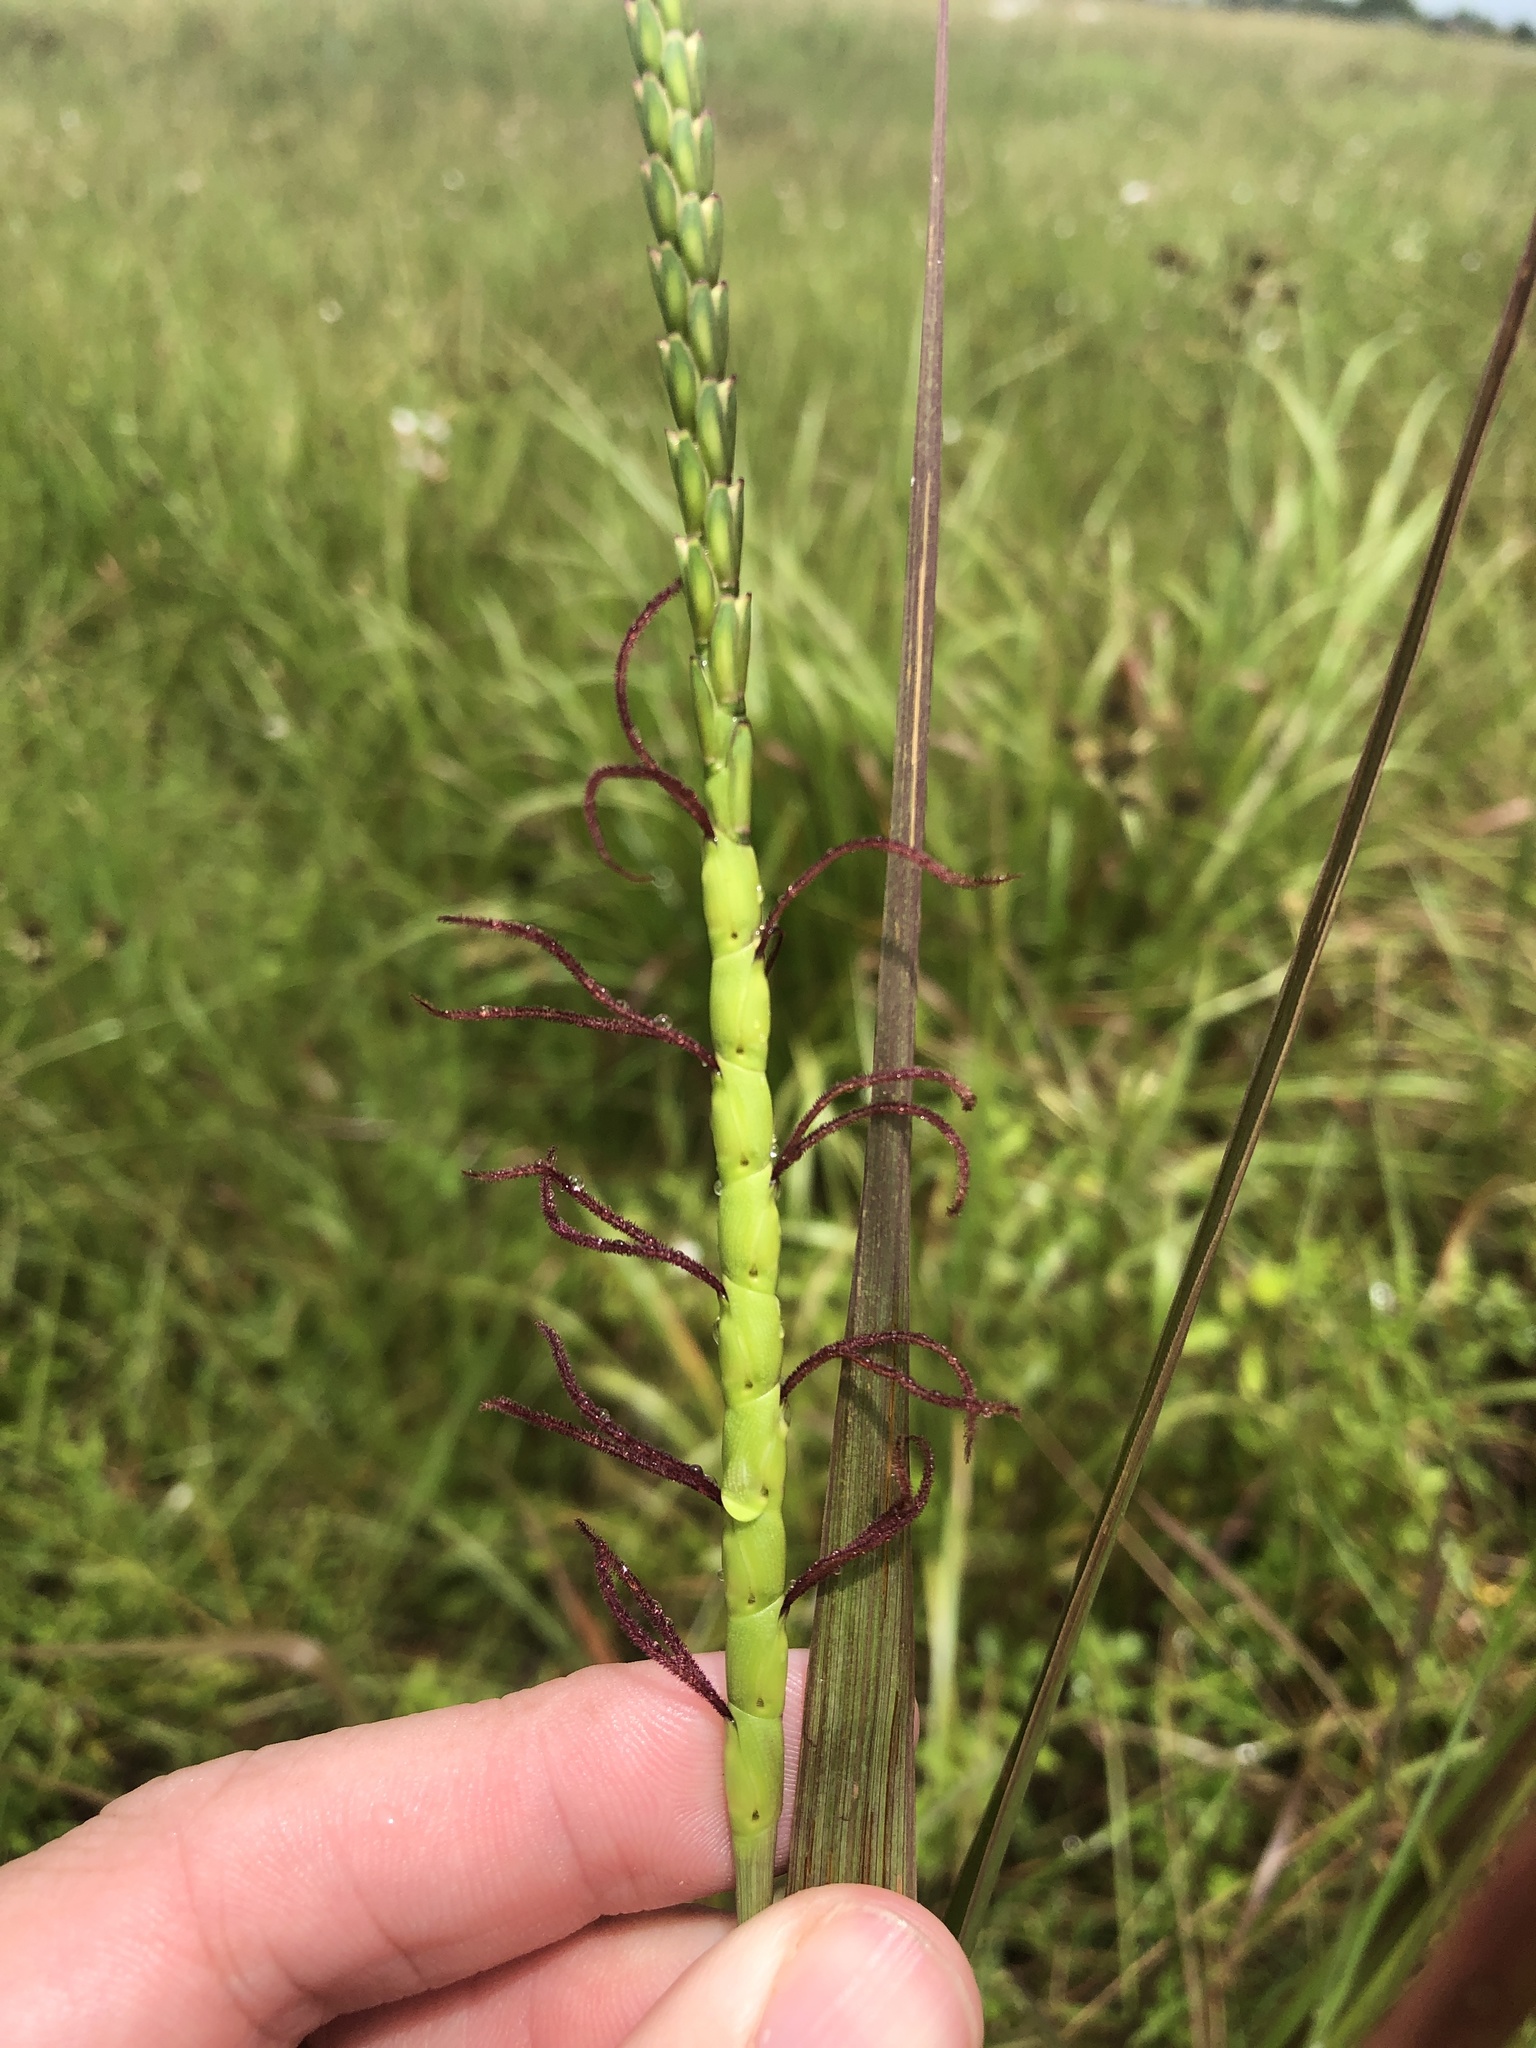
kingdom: Plantae
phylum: Tracheophyta
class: Liliopsida
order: Poales
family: Poaceae
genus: Tripsacum
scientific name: Tripsacum dactyloides
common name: Buffalo-grass
